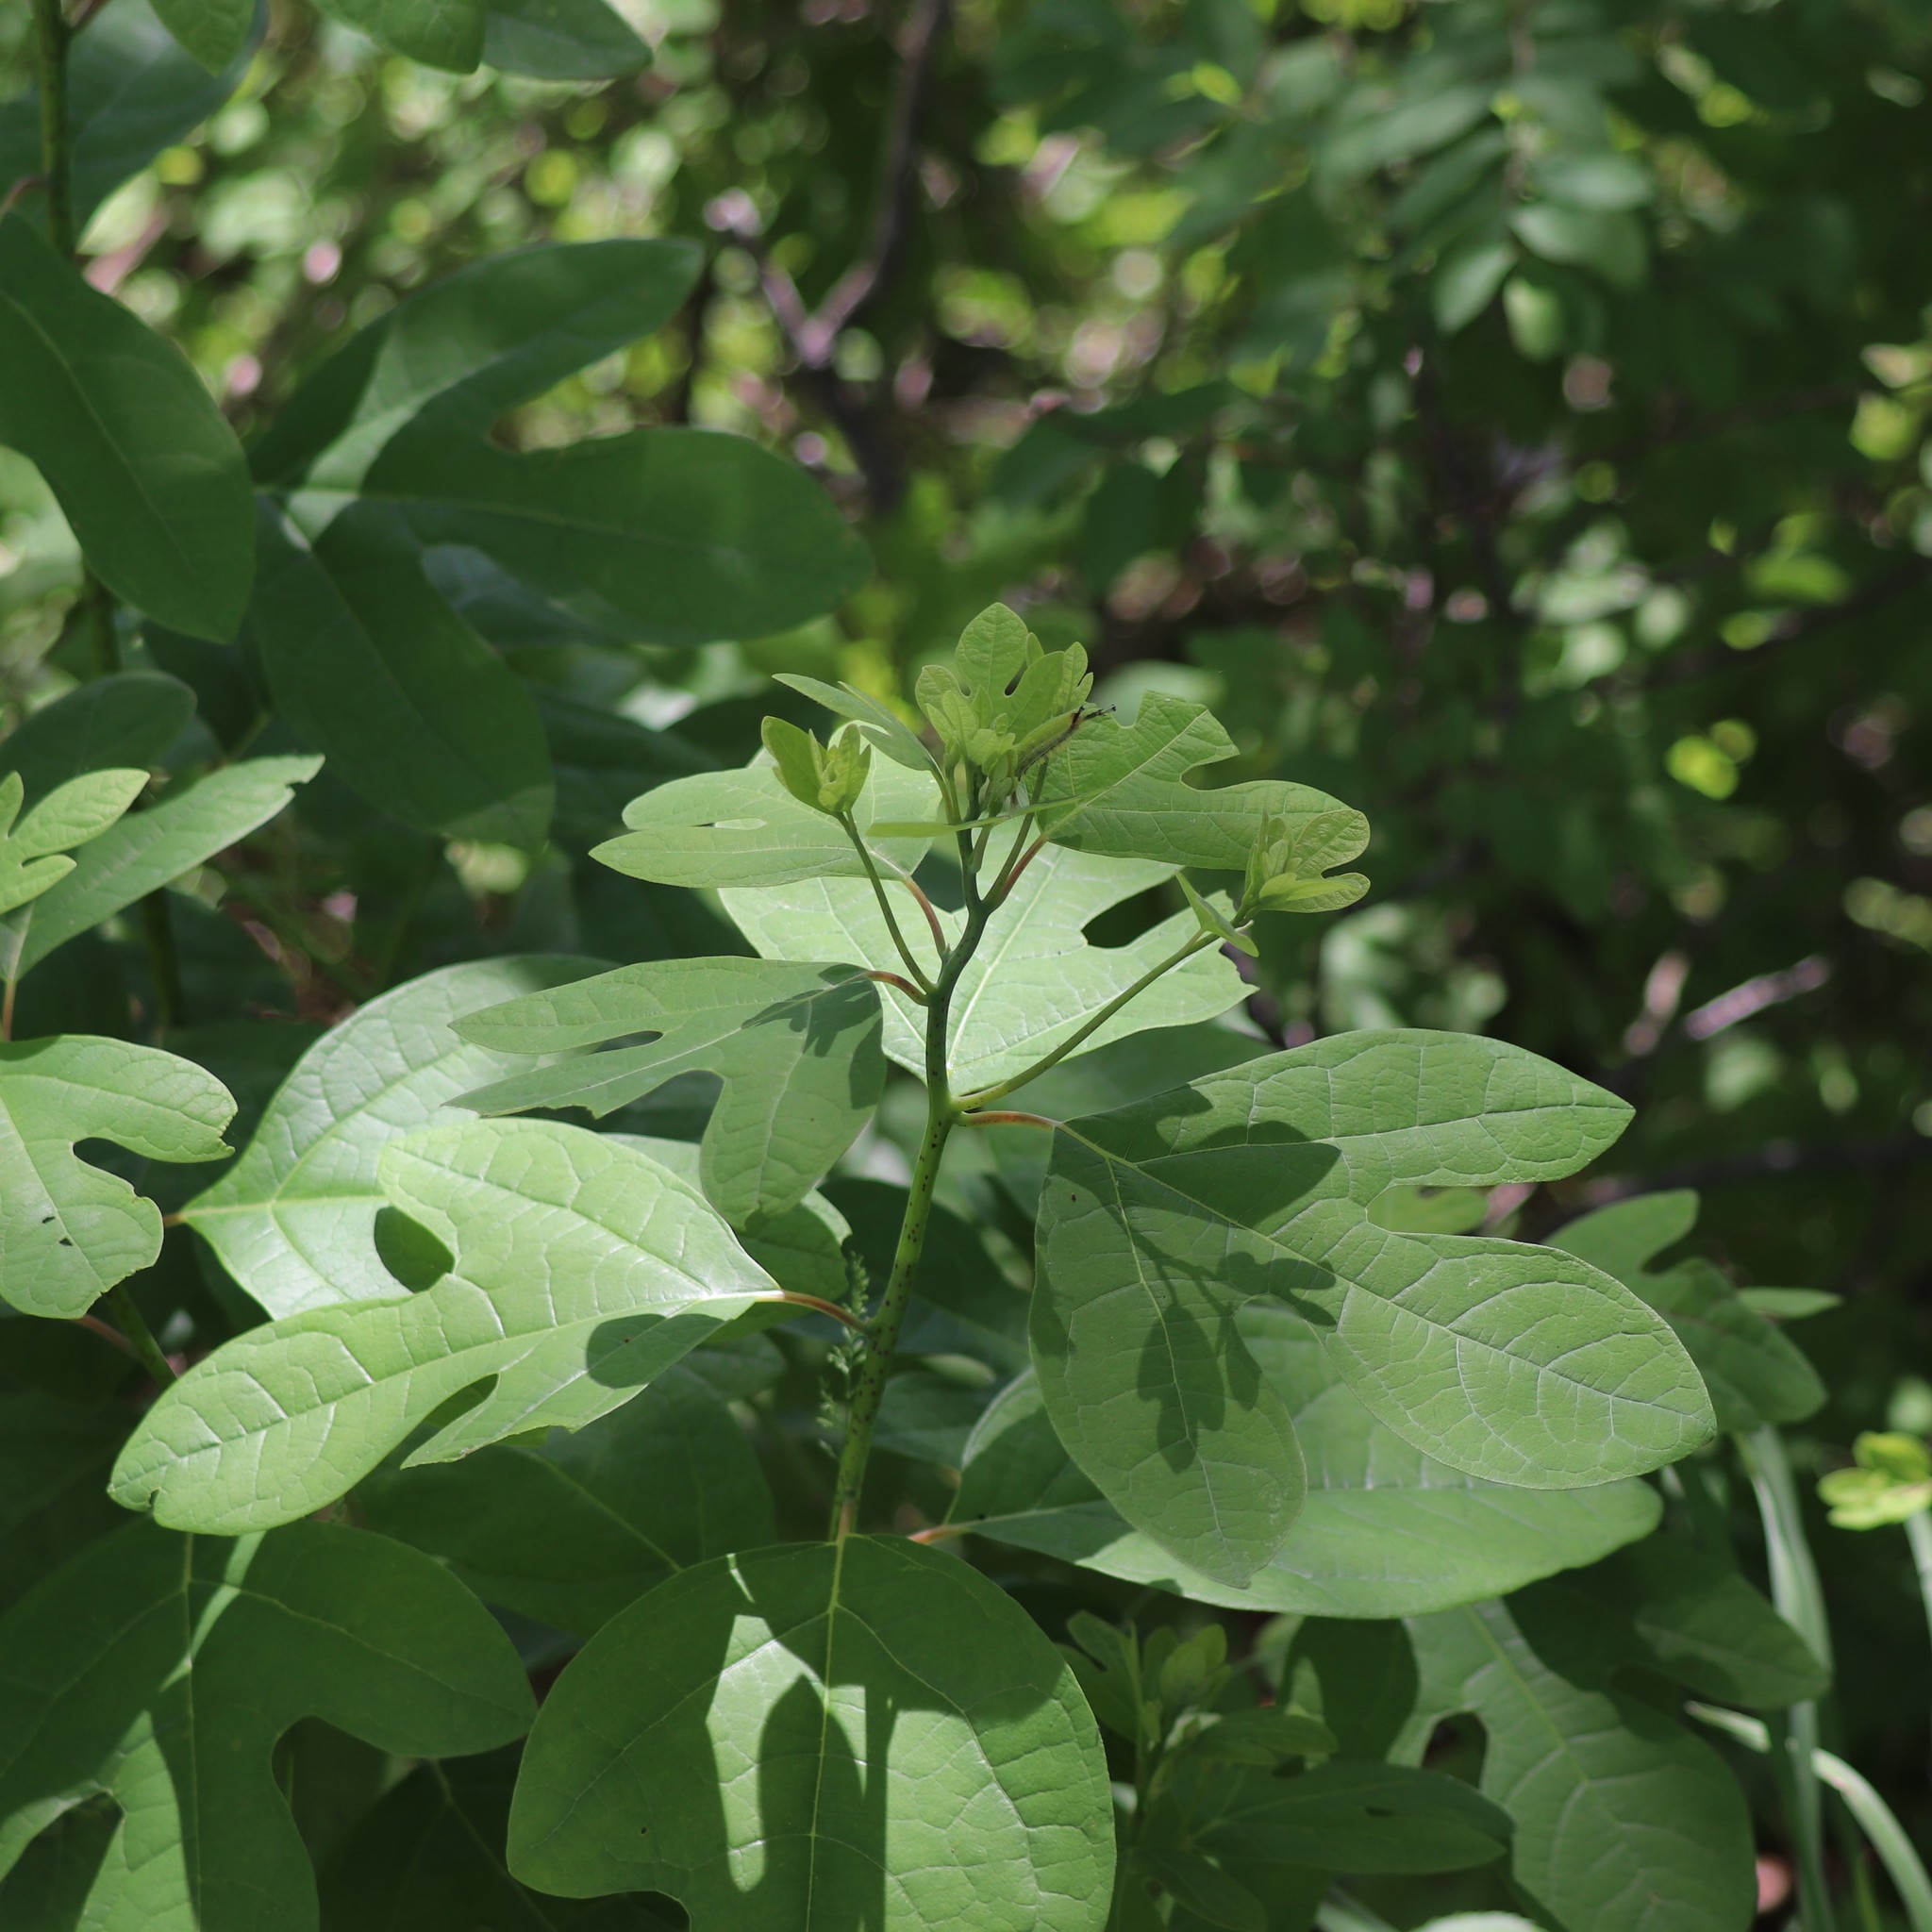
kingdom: Plantae
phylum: Tracheophyta
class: Magnoliopsida
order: Laurales
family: Lauraceae
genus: Sassafras
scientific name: Sassafras albidum
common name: Sassafras
